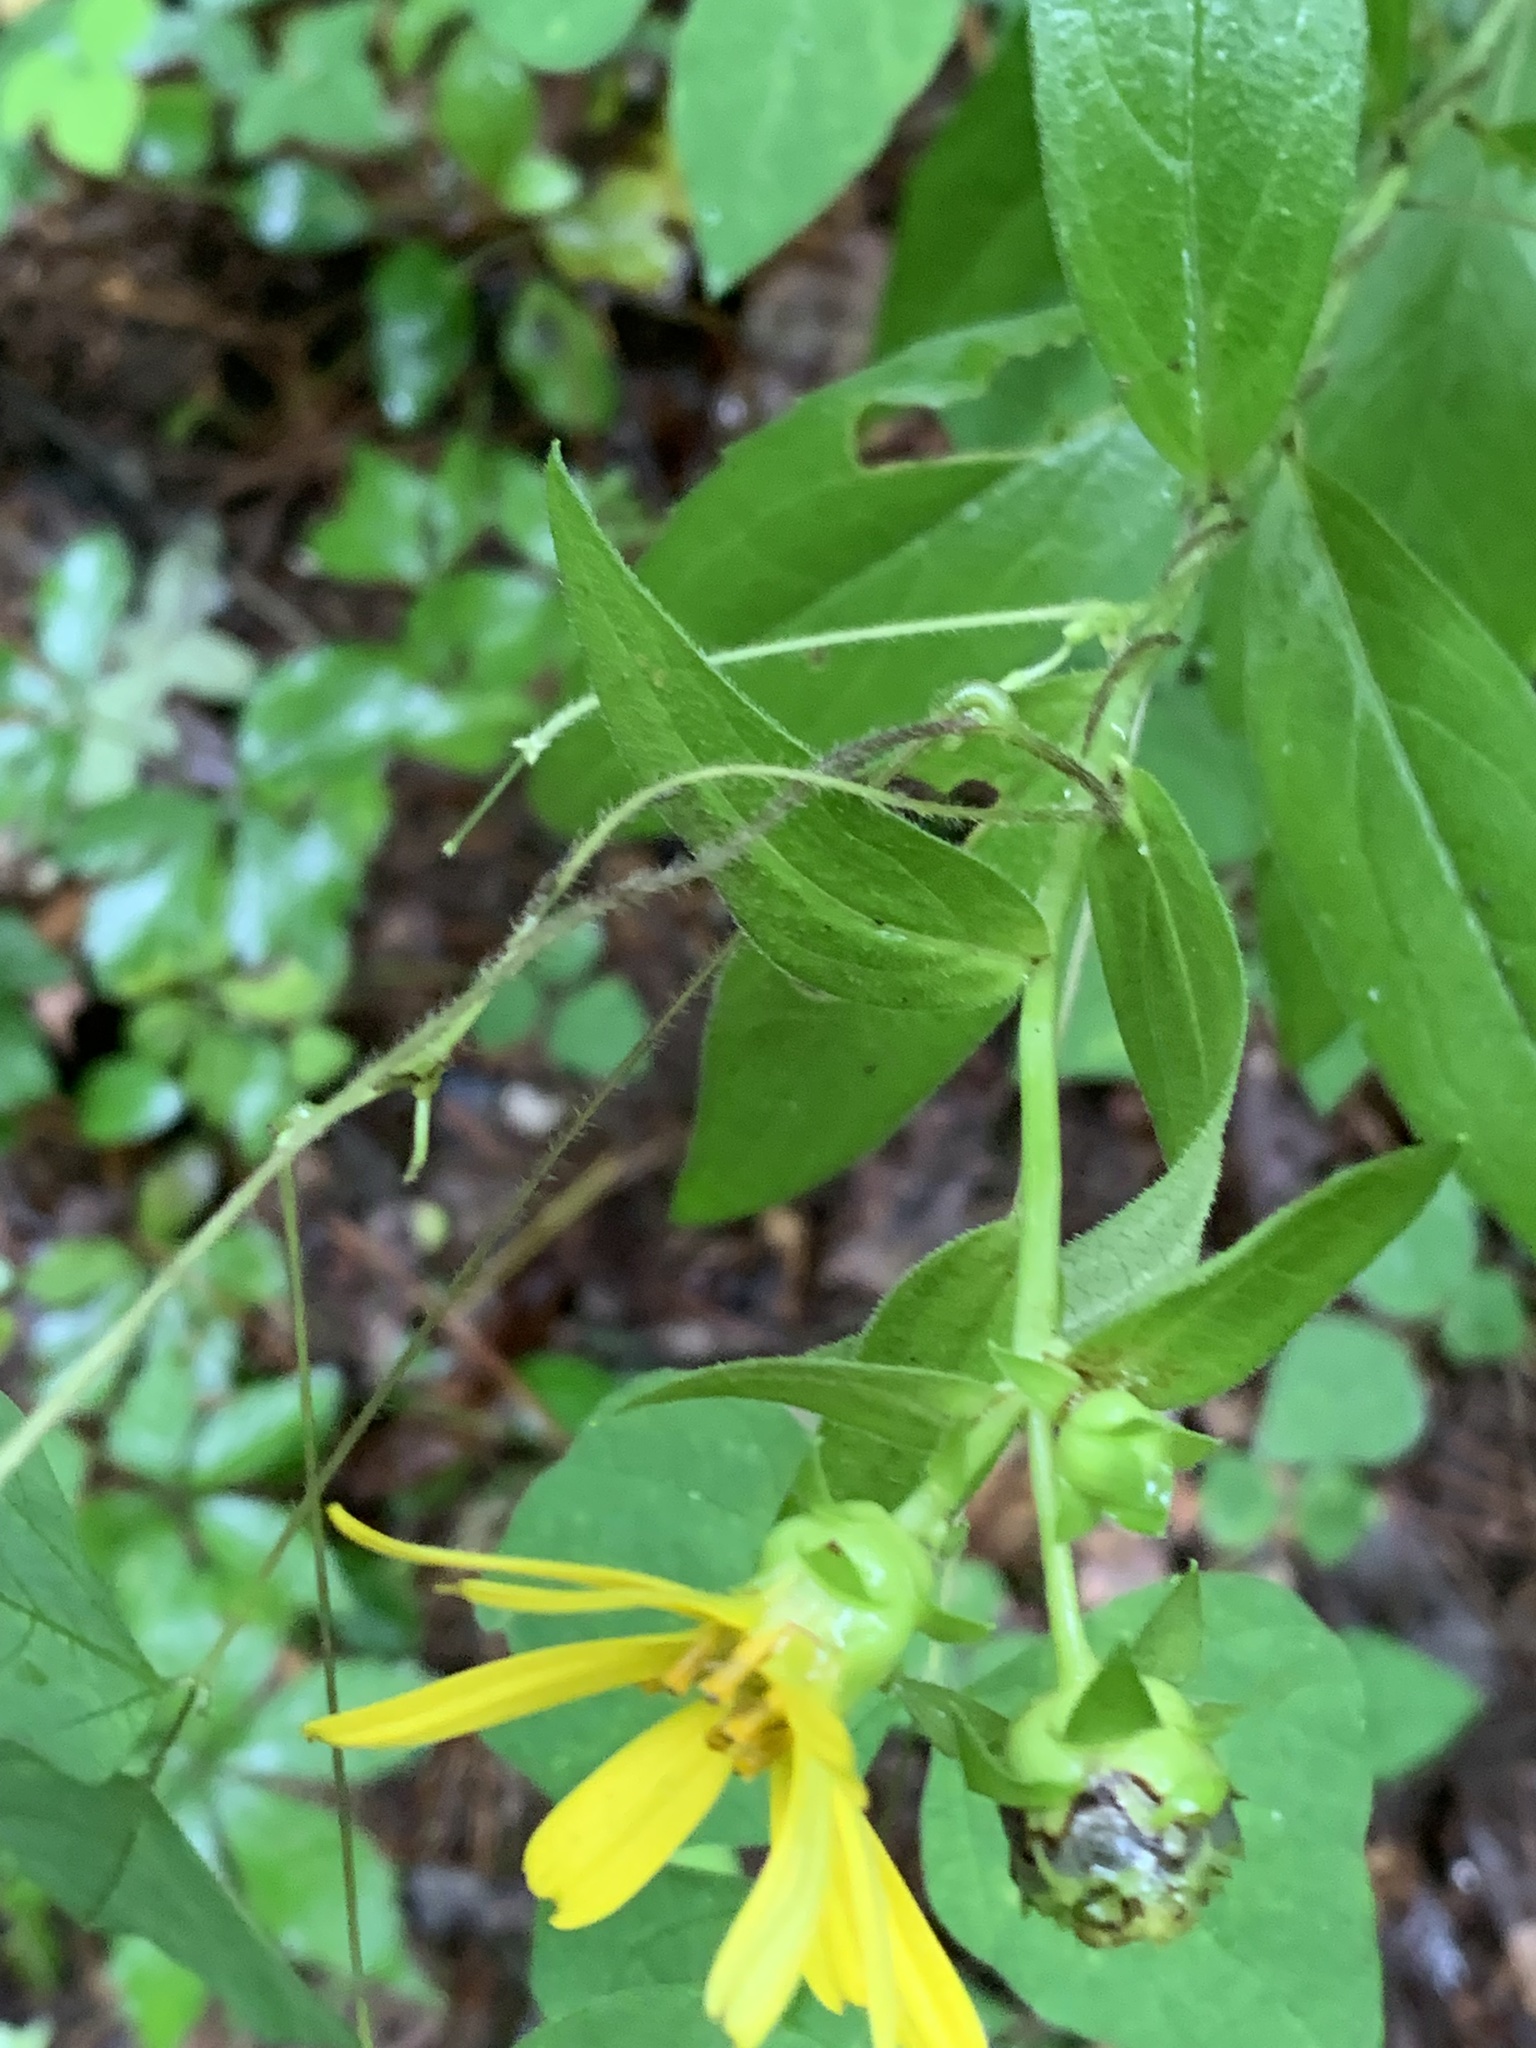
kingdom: Plantae
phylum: Tracheophyta
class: Magnoliopsida
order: Asterales
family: Asteraceae
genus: Silphium
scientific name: Silphium asteriscus
